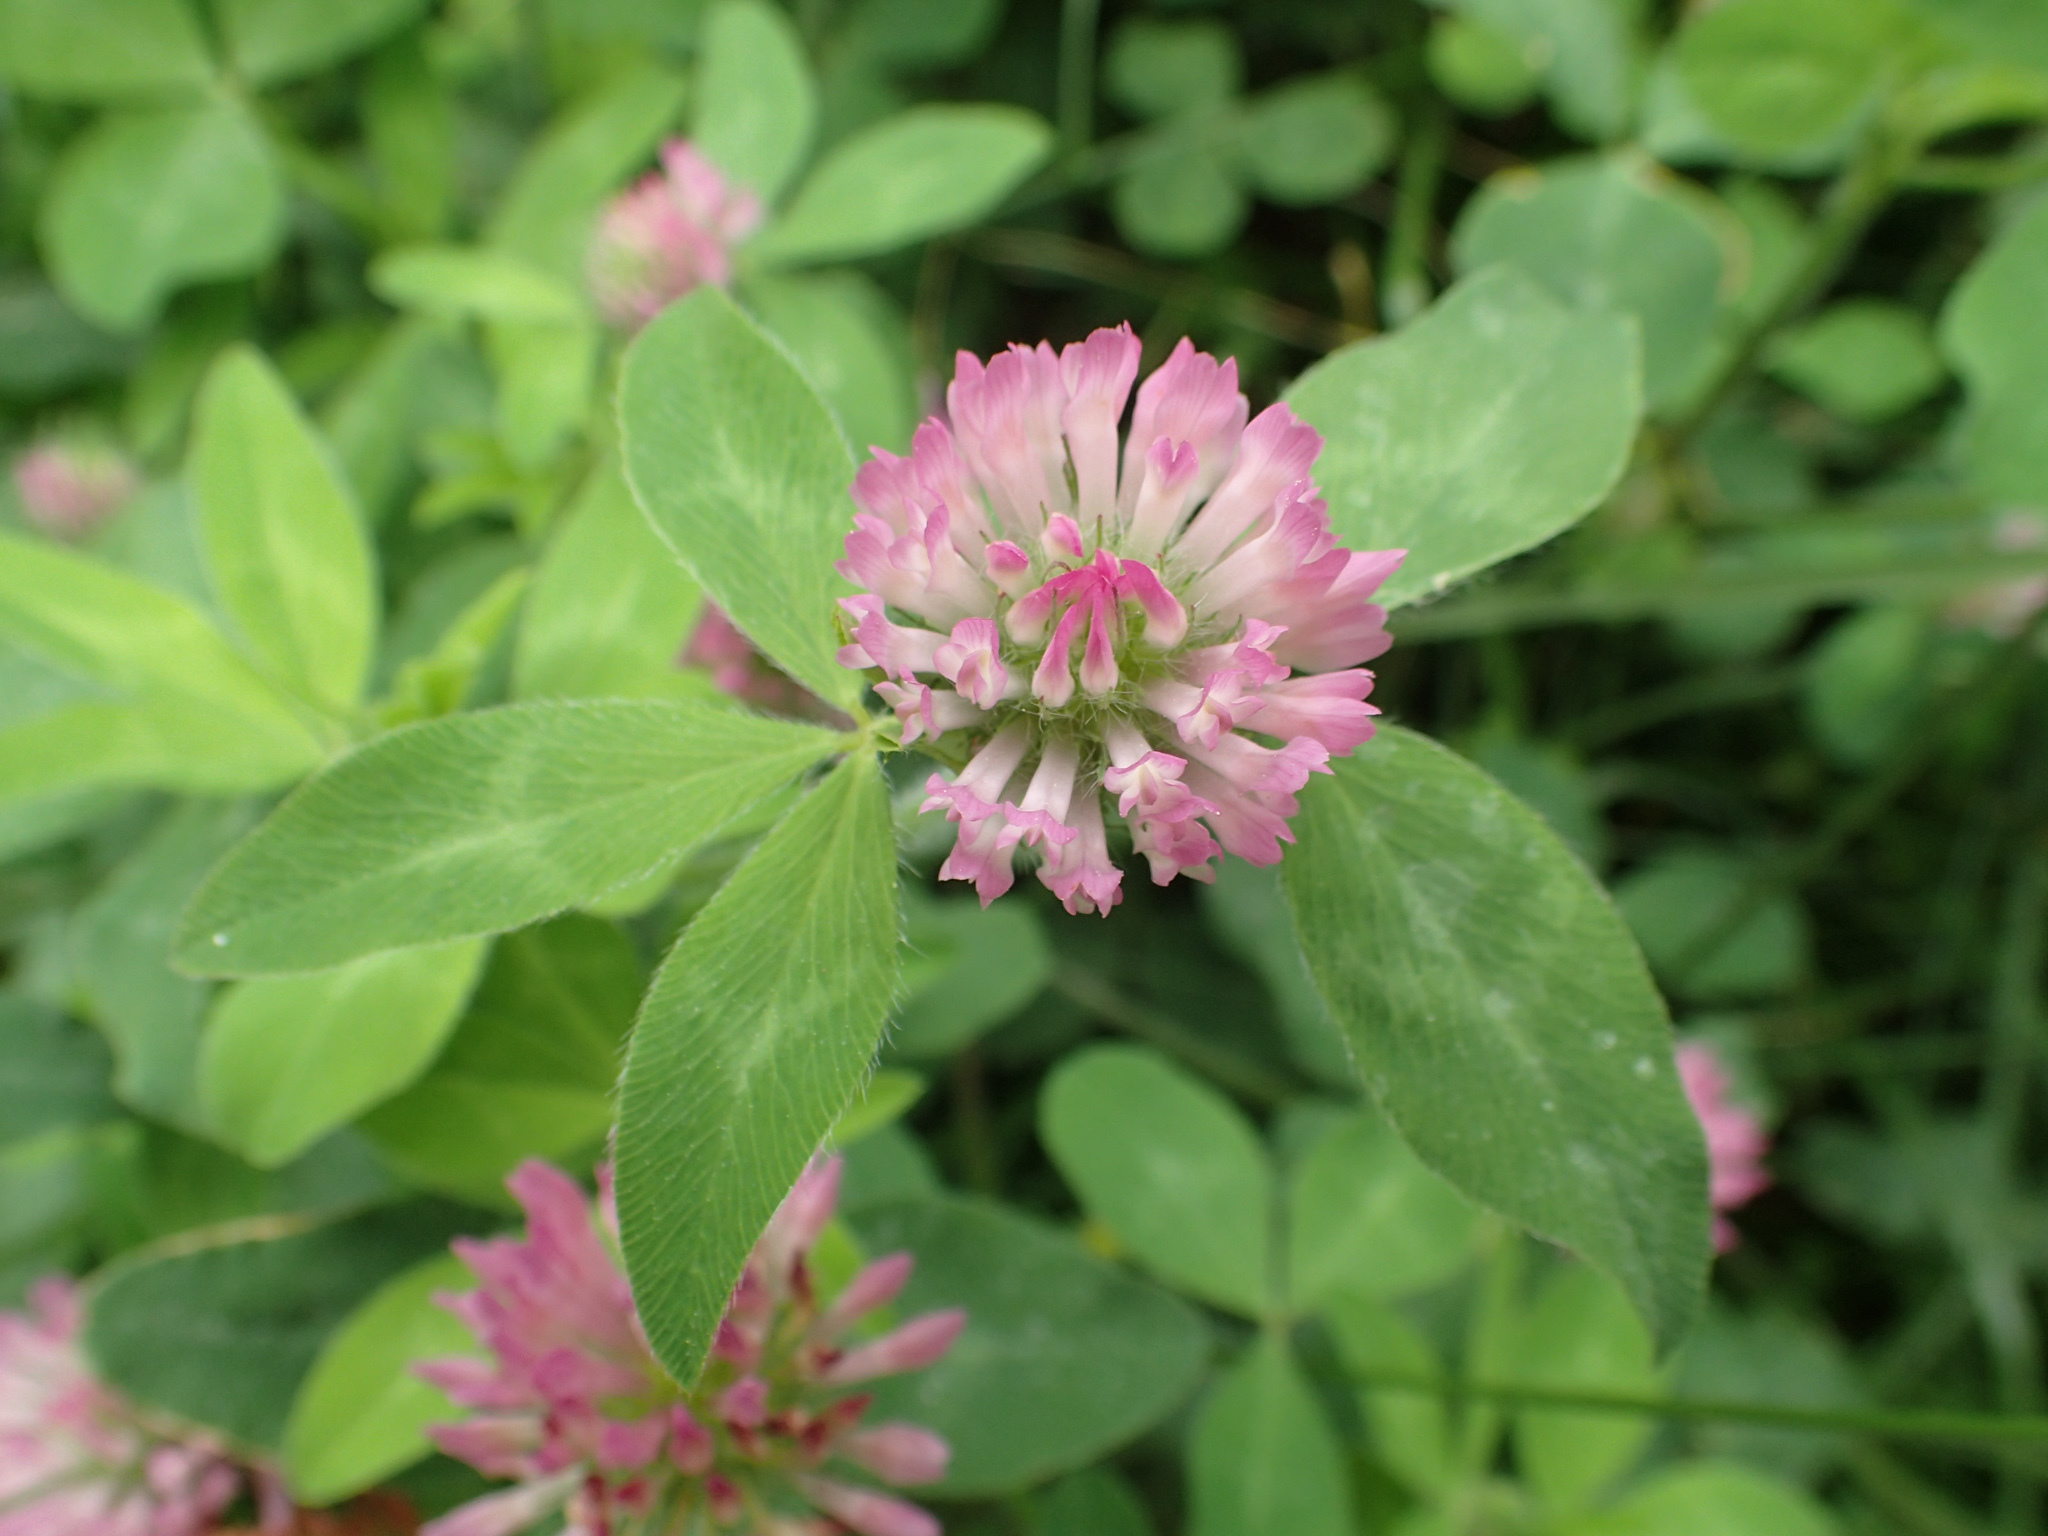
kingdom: Plantae
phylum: Tracheophyta
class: Magnoliopsida
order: Fabales
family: Fabaceae
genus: Trifolium
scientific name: Trifolium pratense
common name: Red clover
